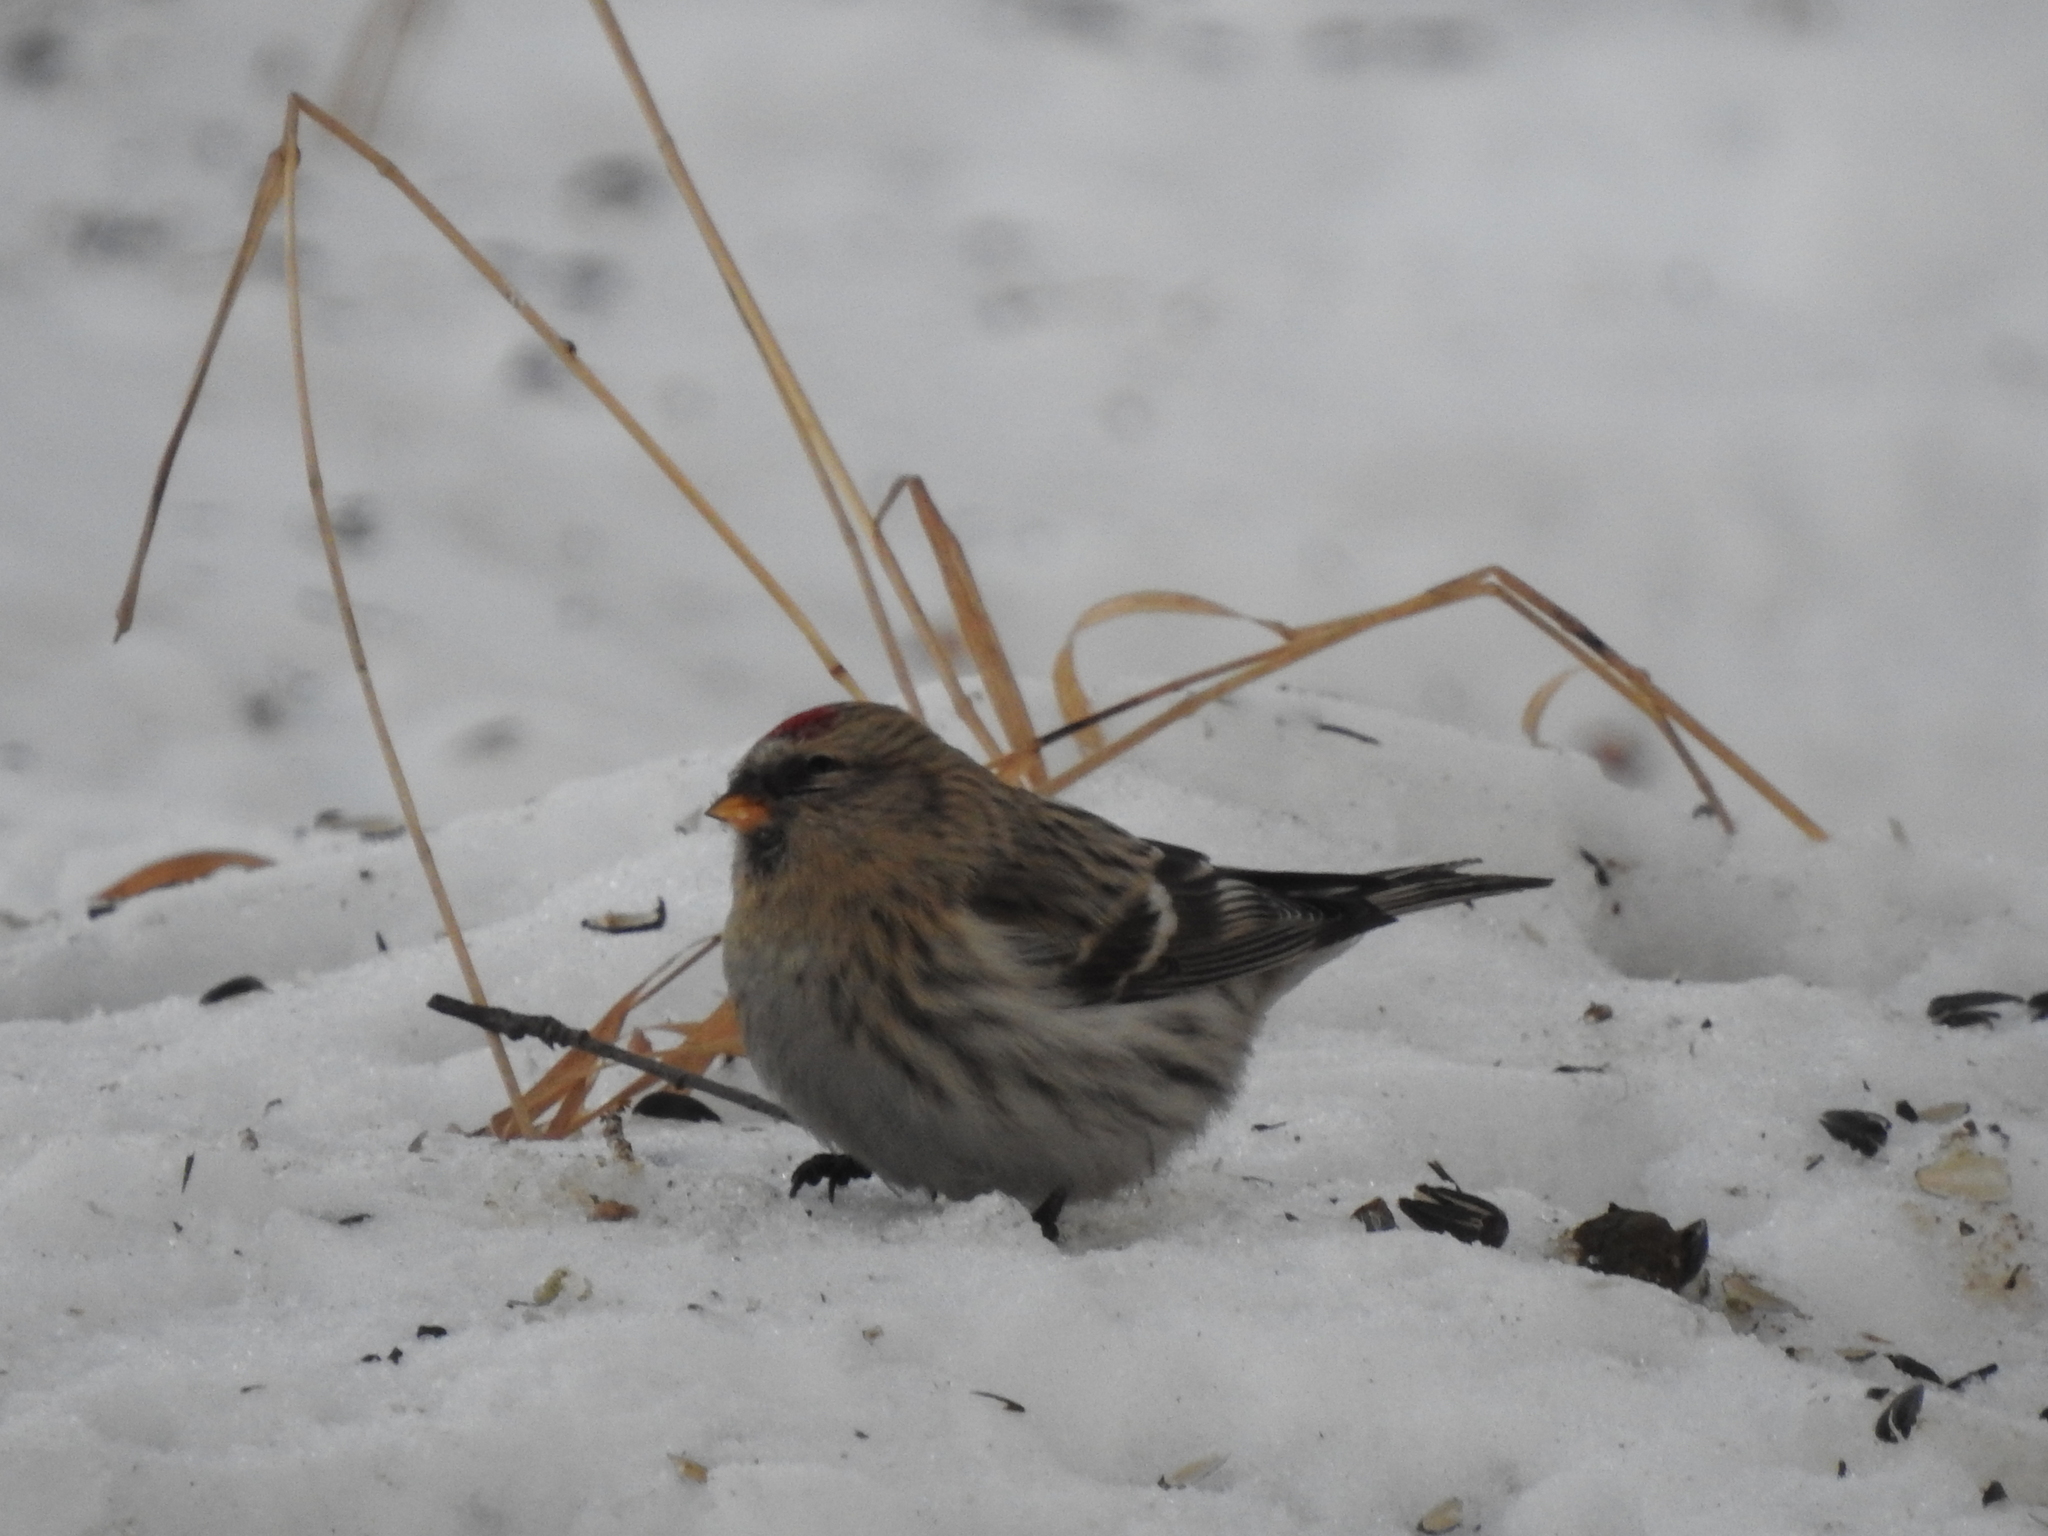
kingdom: Animalia
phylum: Chordata
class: Aves
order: Passeriformes
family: Fringillidae
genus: Acanthis
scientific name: Acanthis flammea
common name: Common redpoll
